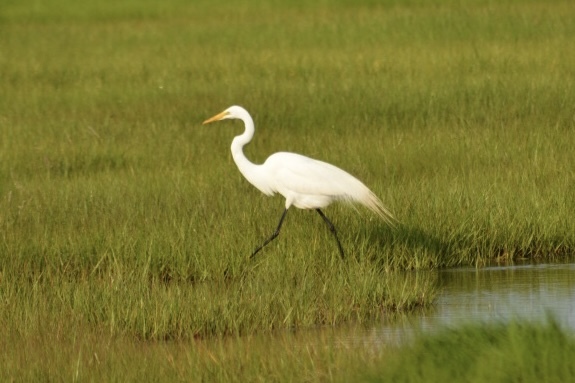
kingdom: Animalia
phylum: Chordata
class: Aves
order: Pelecaniformes
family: Ardeidae
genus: Ardea
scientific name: Ardea alba
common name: Great egret
